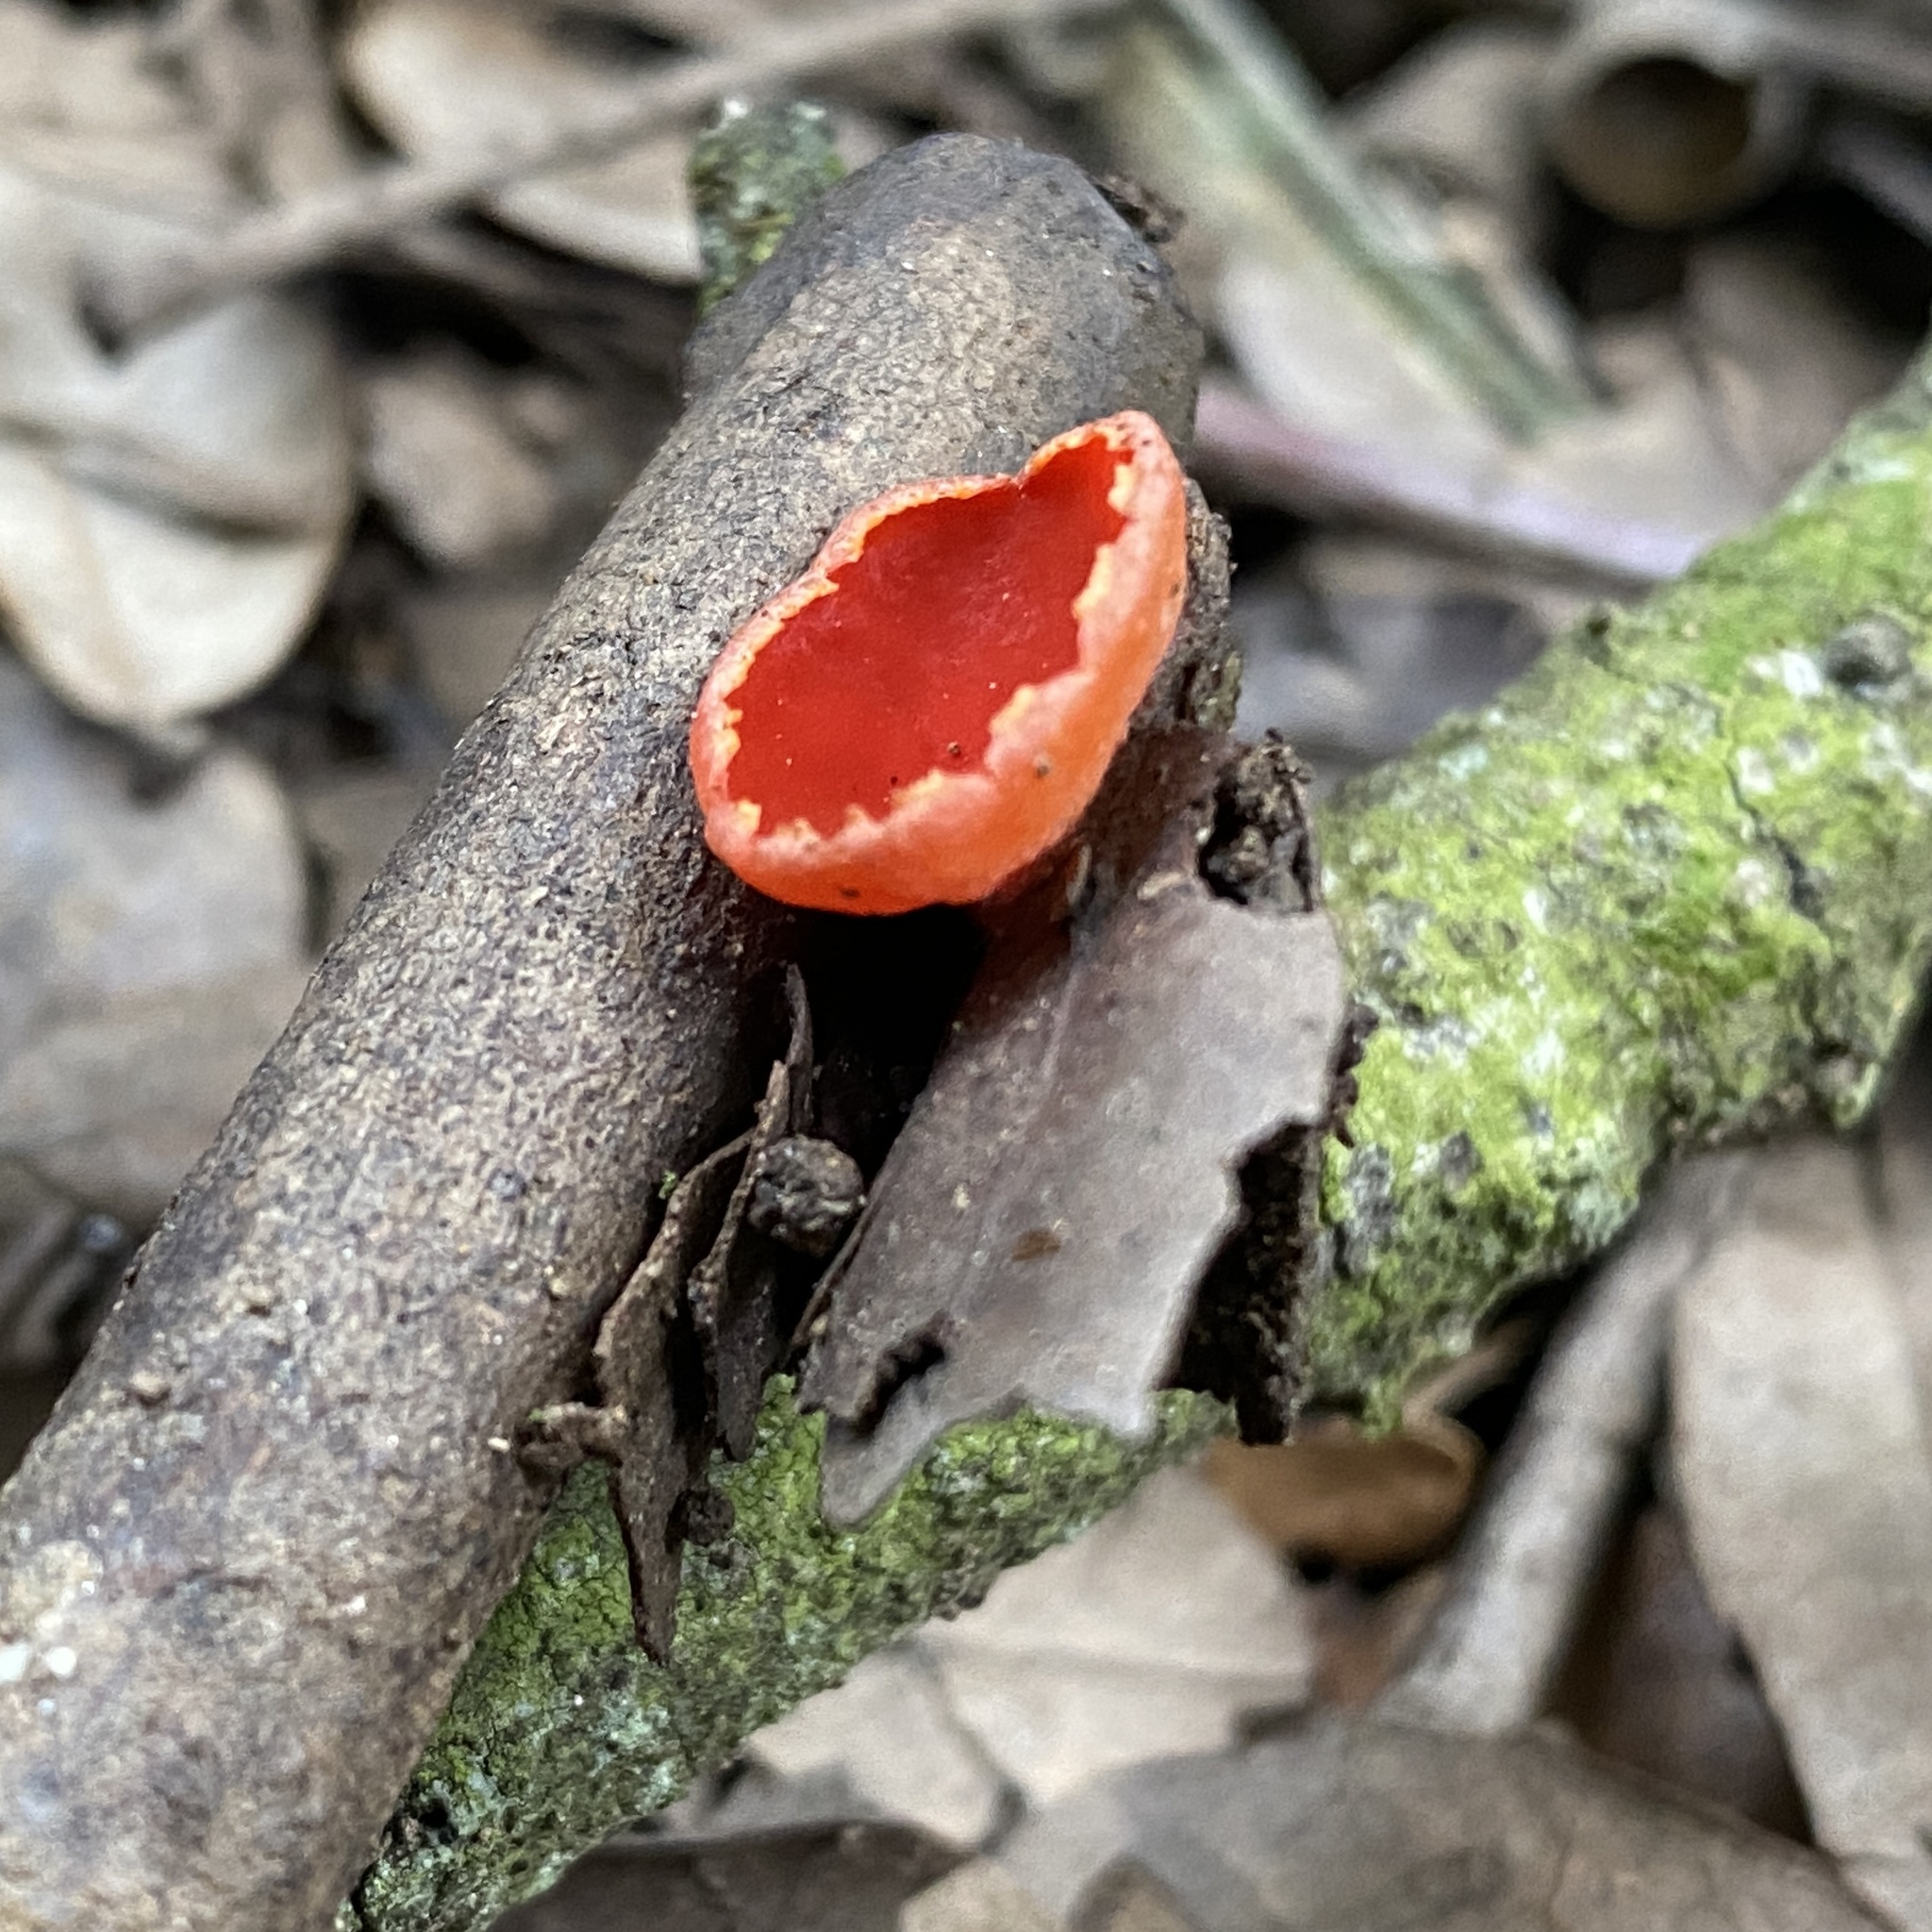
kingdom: Fungi
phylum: Ascomycota
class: Pezizomycetes
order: Pezizales
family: Sarcoscyphaceae
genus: Sarcoscypha
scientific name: Sarcoscypha
